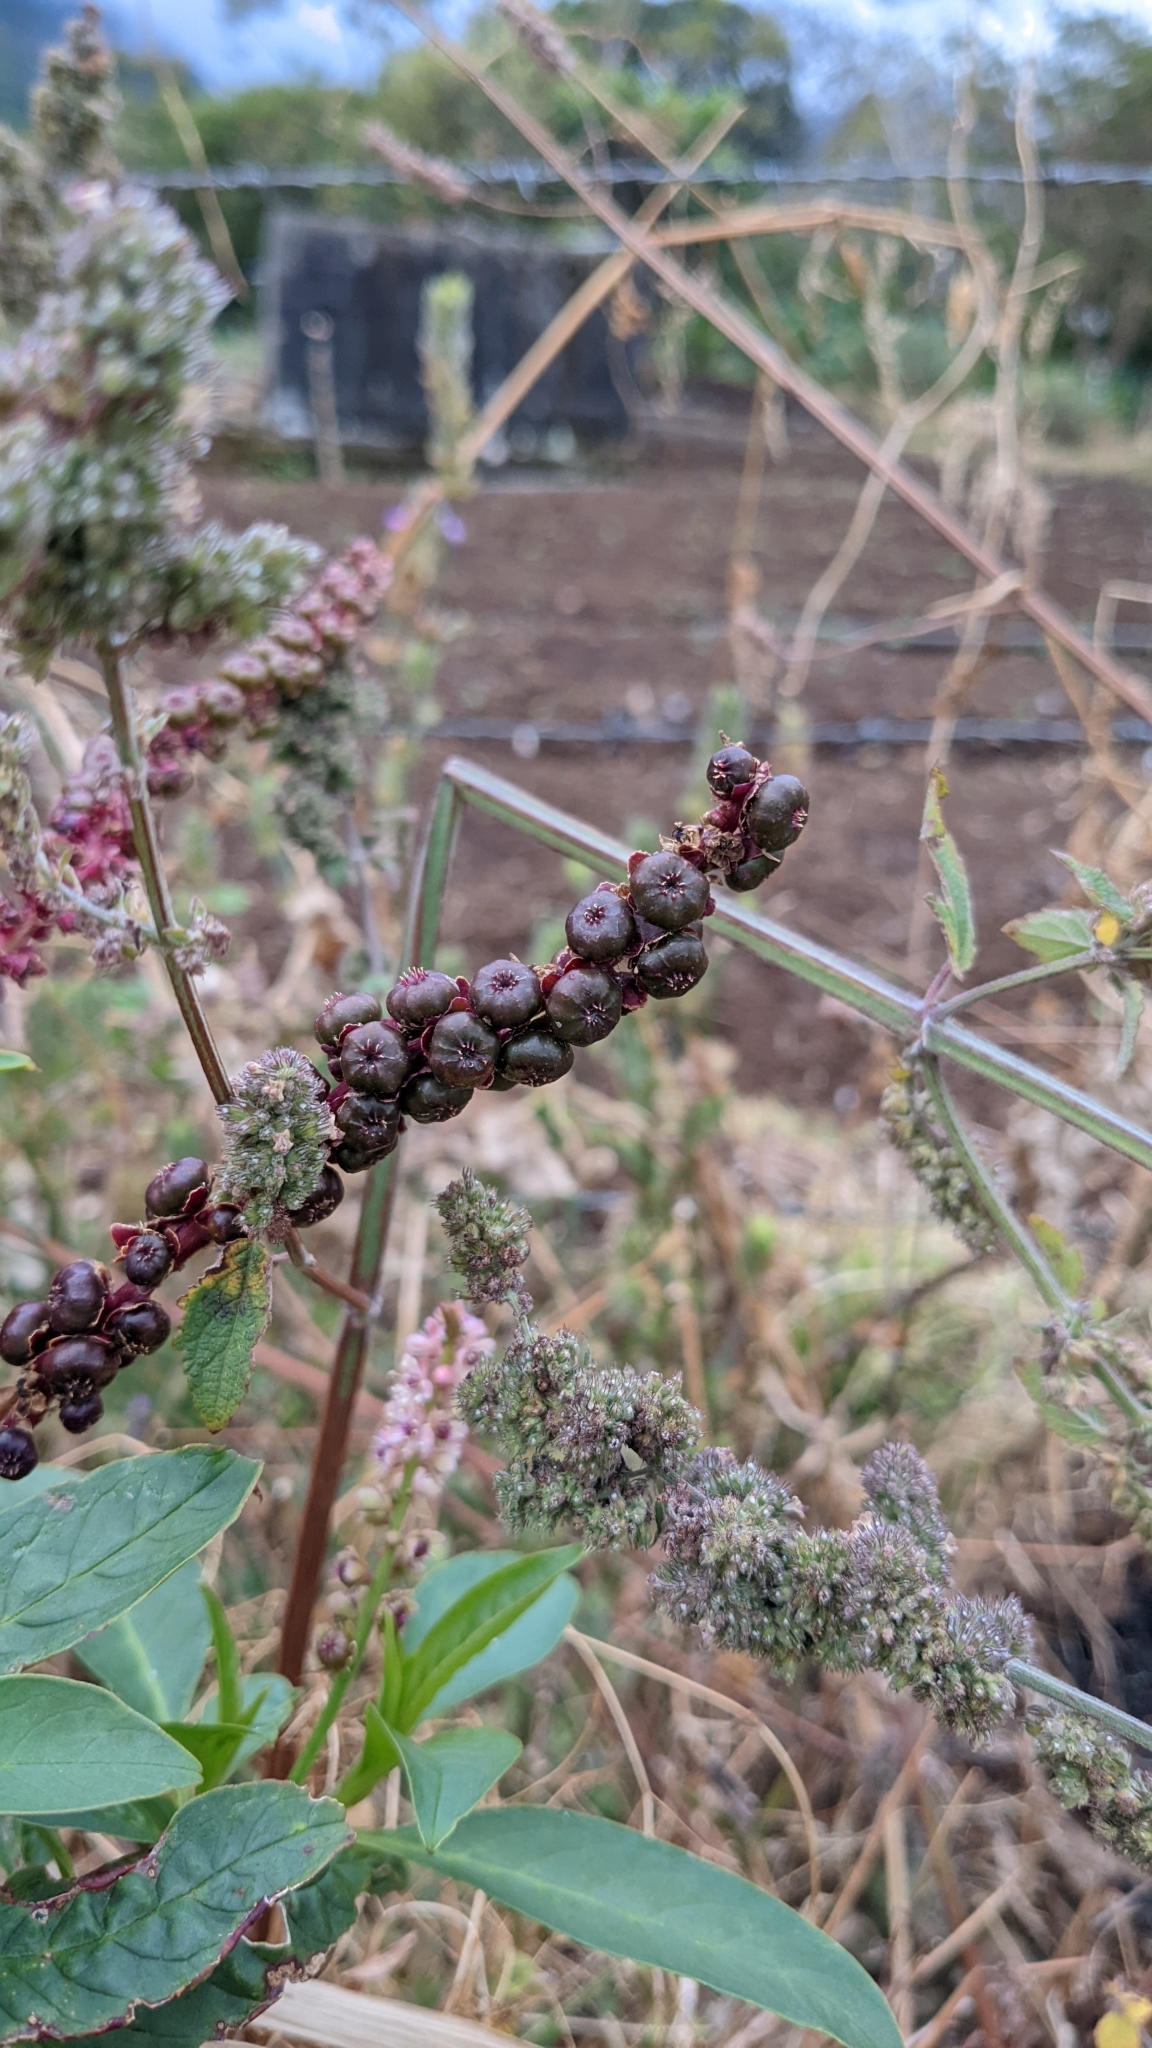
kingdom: Plantae
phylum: Tracheophyta
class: Magnoliopsida
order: Caryophyllales
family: Phytolaccaceae
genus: Phytolacca
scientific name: Phytolacca icosandra
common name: Button pokeweed
